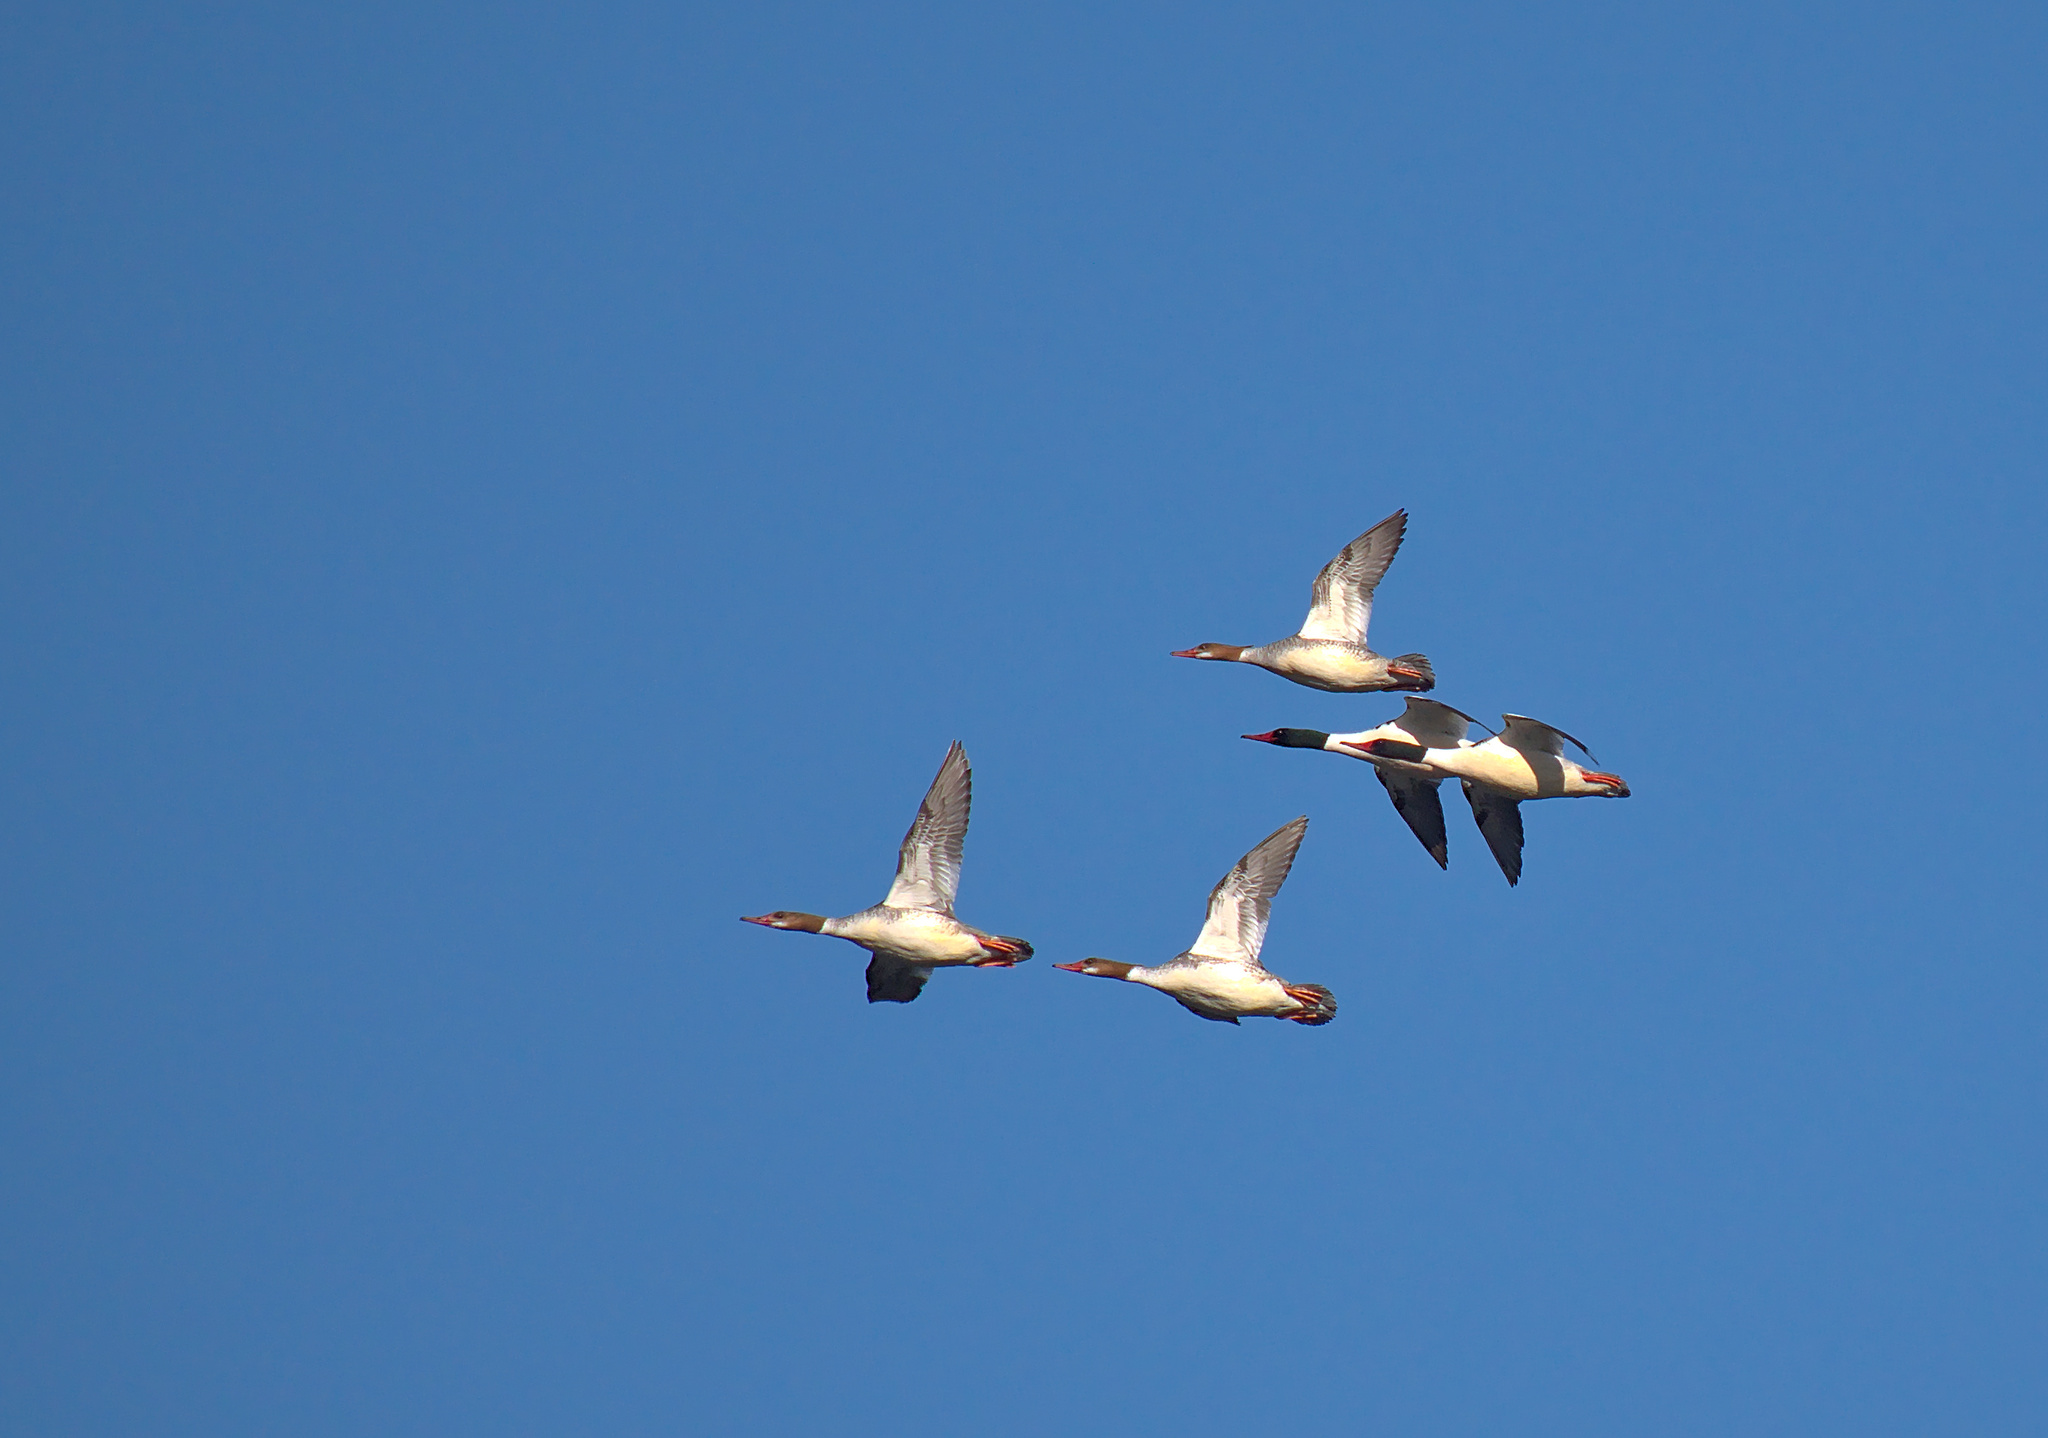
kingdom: Animalia
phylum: Chordata
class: Aves
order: Anseriformes
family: Anatidae
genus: Mergus
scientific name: Mergus merganser
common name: Common merganser
